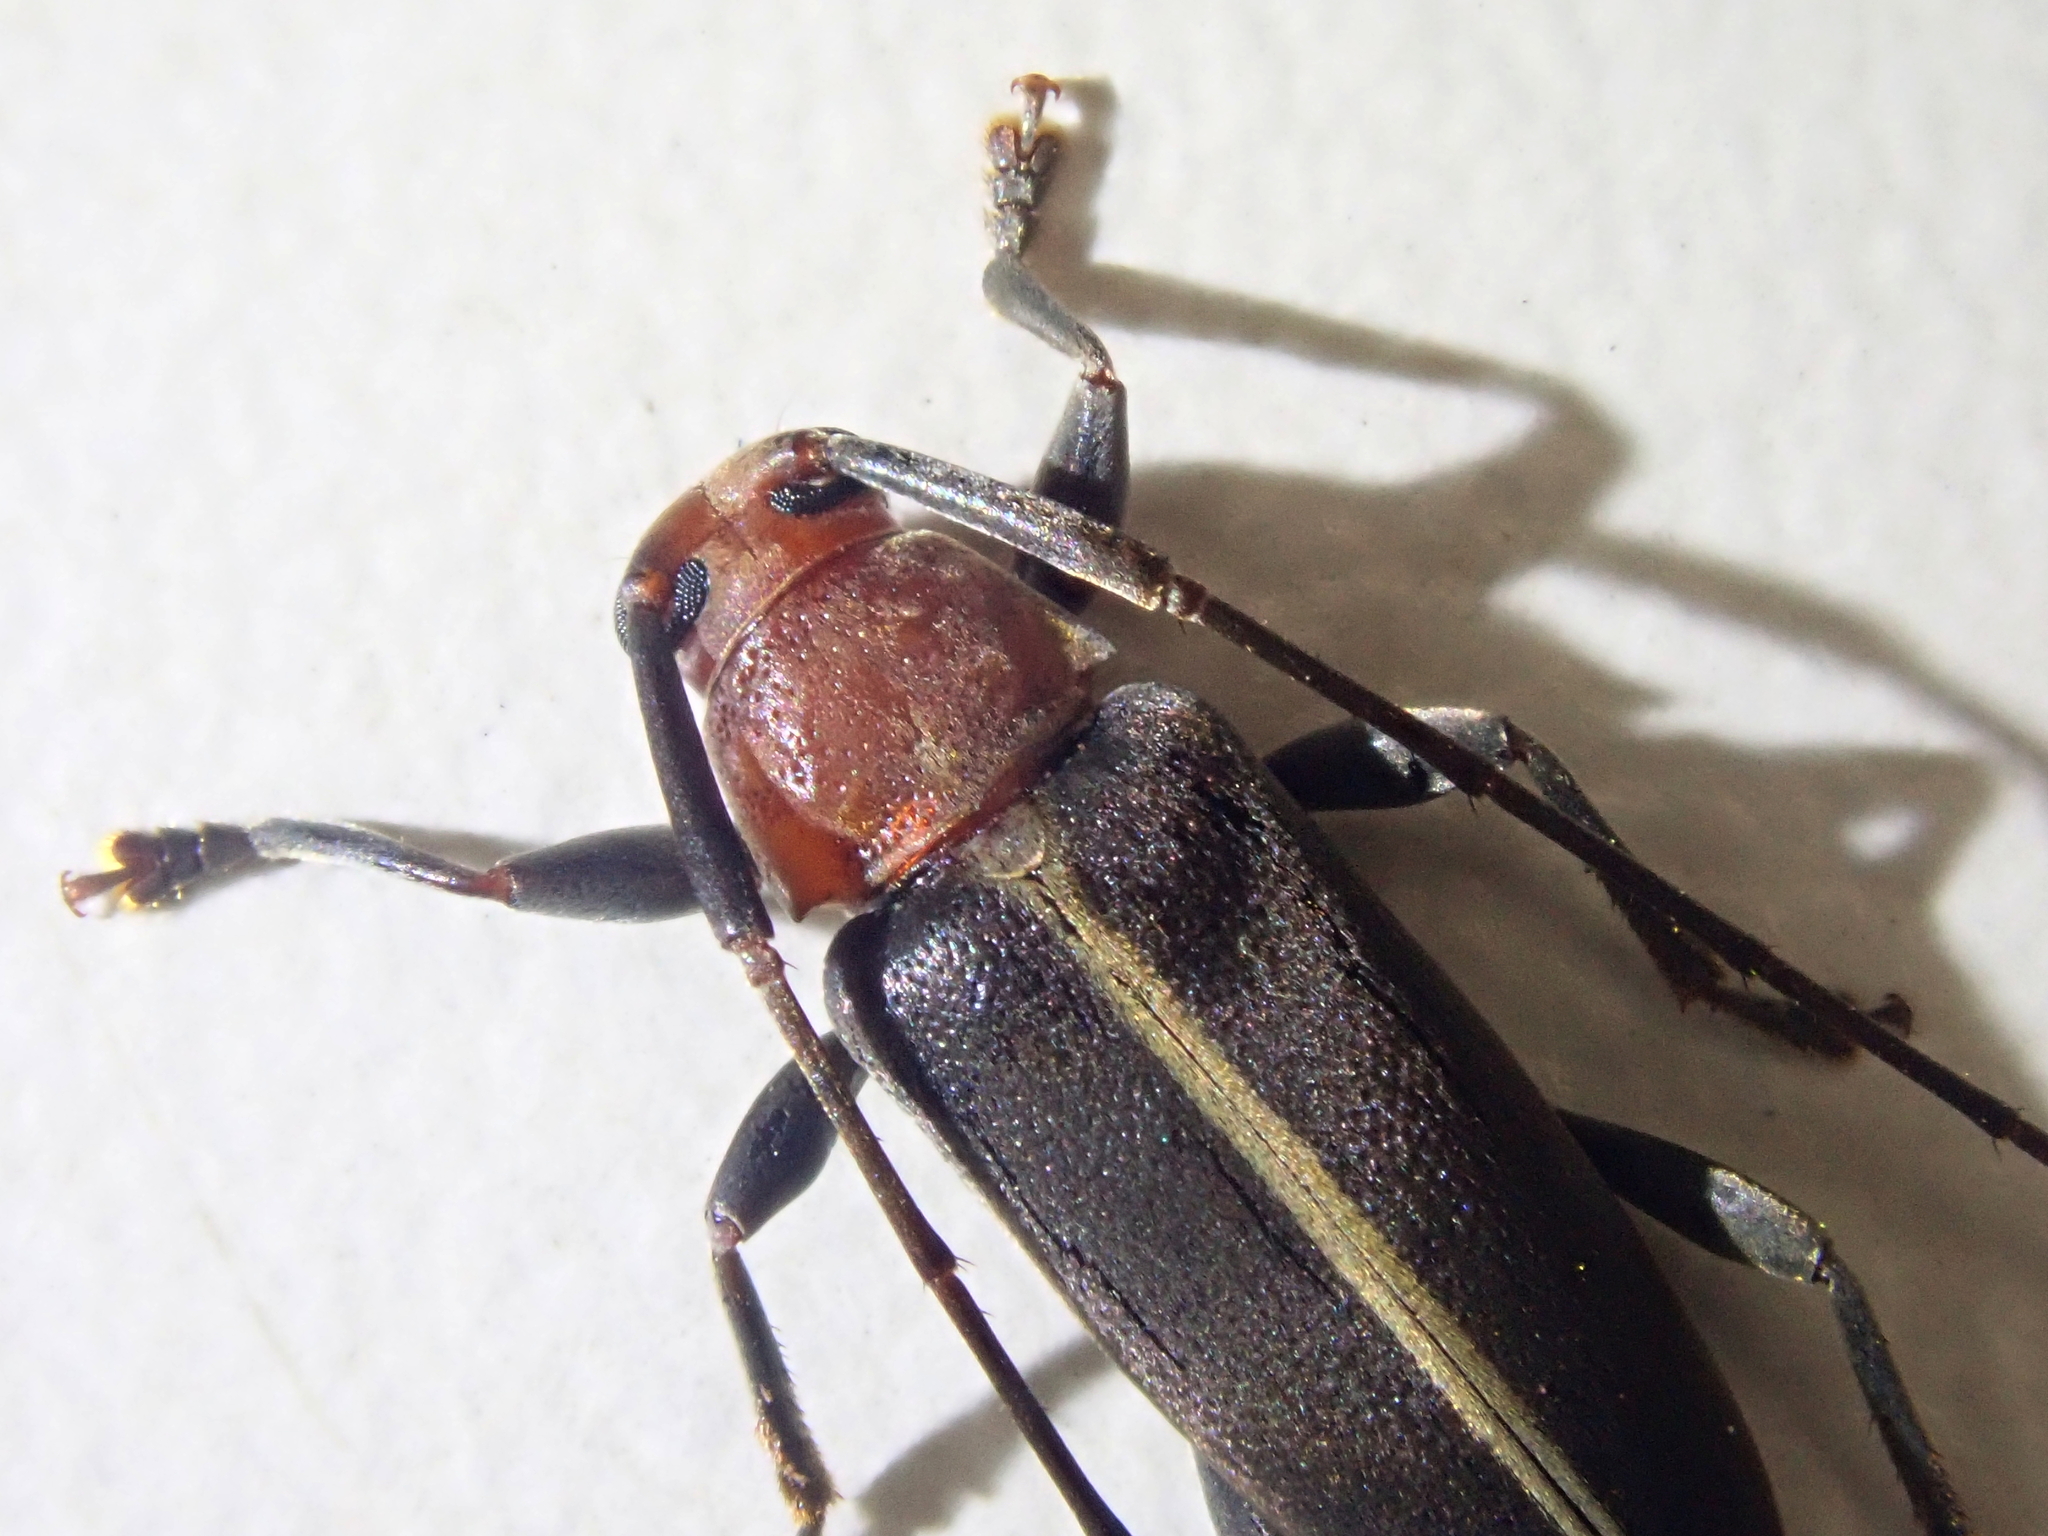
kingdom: Animalia
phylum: Arthropoda
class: Insecta
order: Coleoptera
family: Cerambycidae
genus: Lepturges
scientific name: Lepturges castaneus
